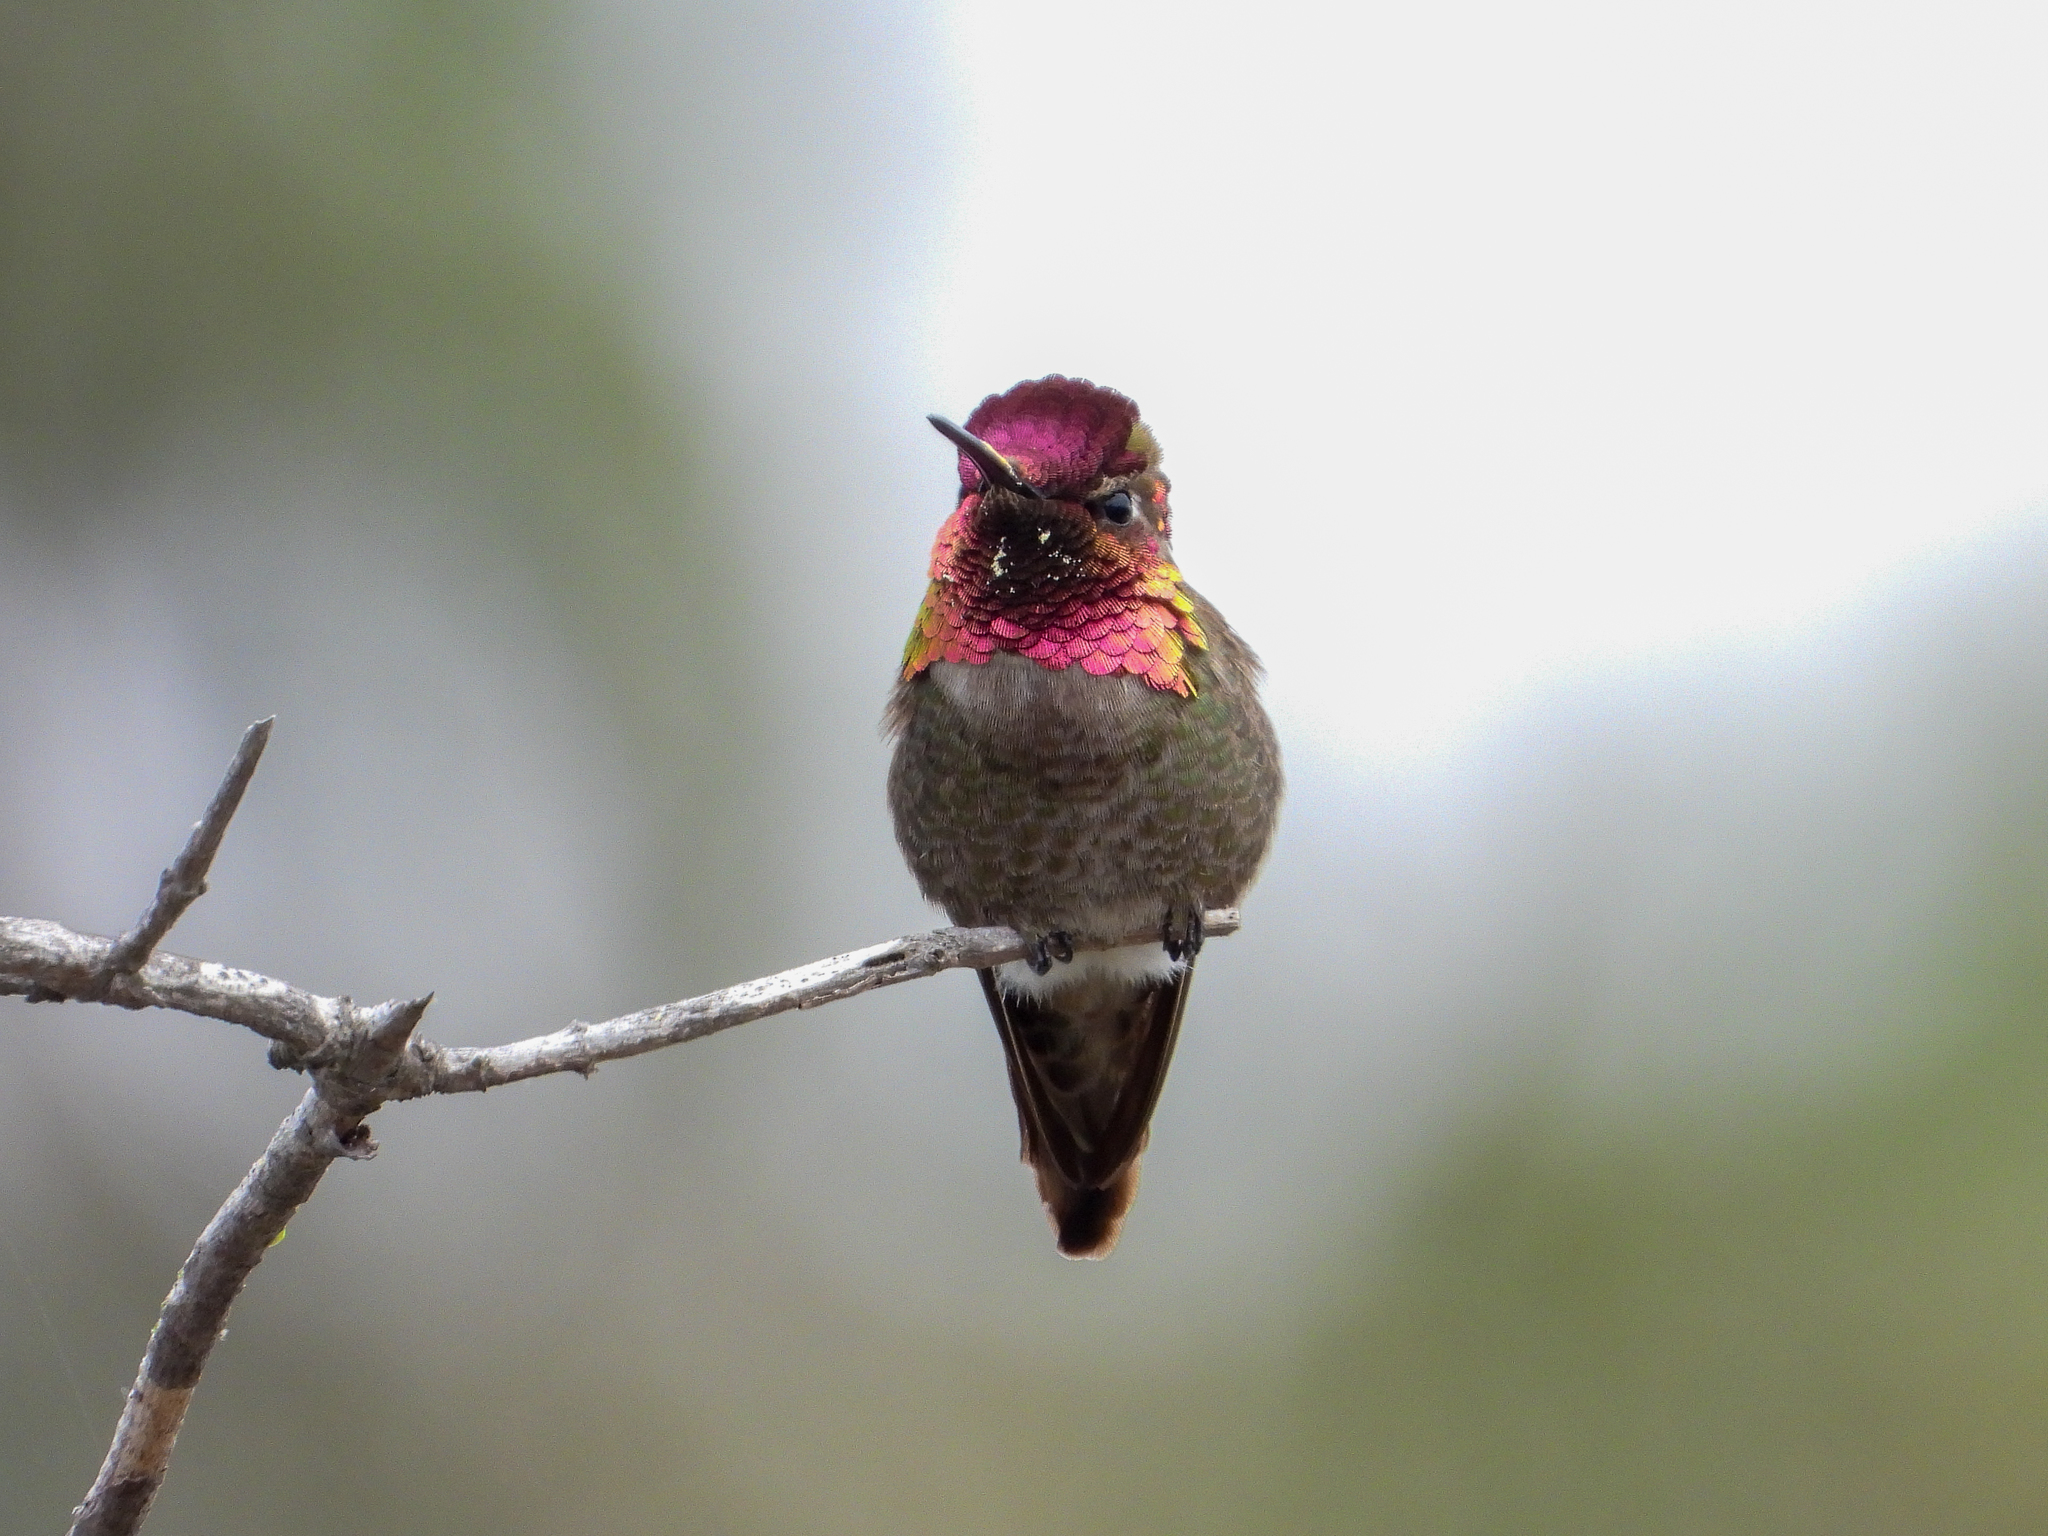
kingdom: Animalia
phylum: Chordata
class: Aves
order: Apodiformes
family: Trochilidae
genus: Calypte
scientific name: Calypte anna
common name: Anna's hummingbird
